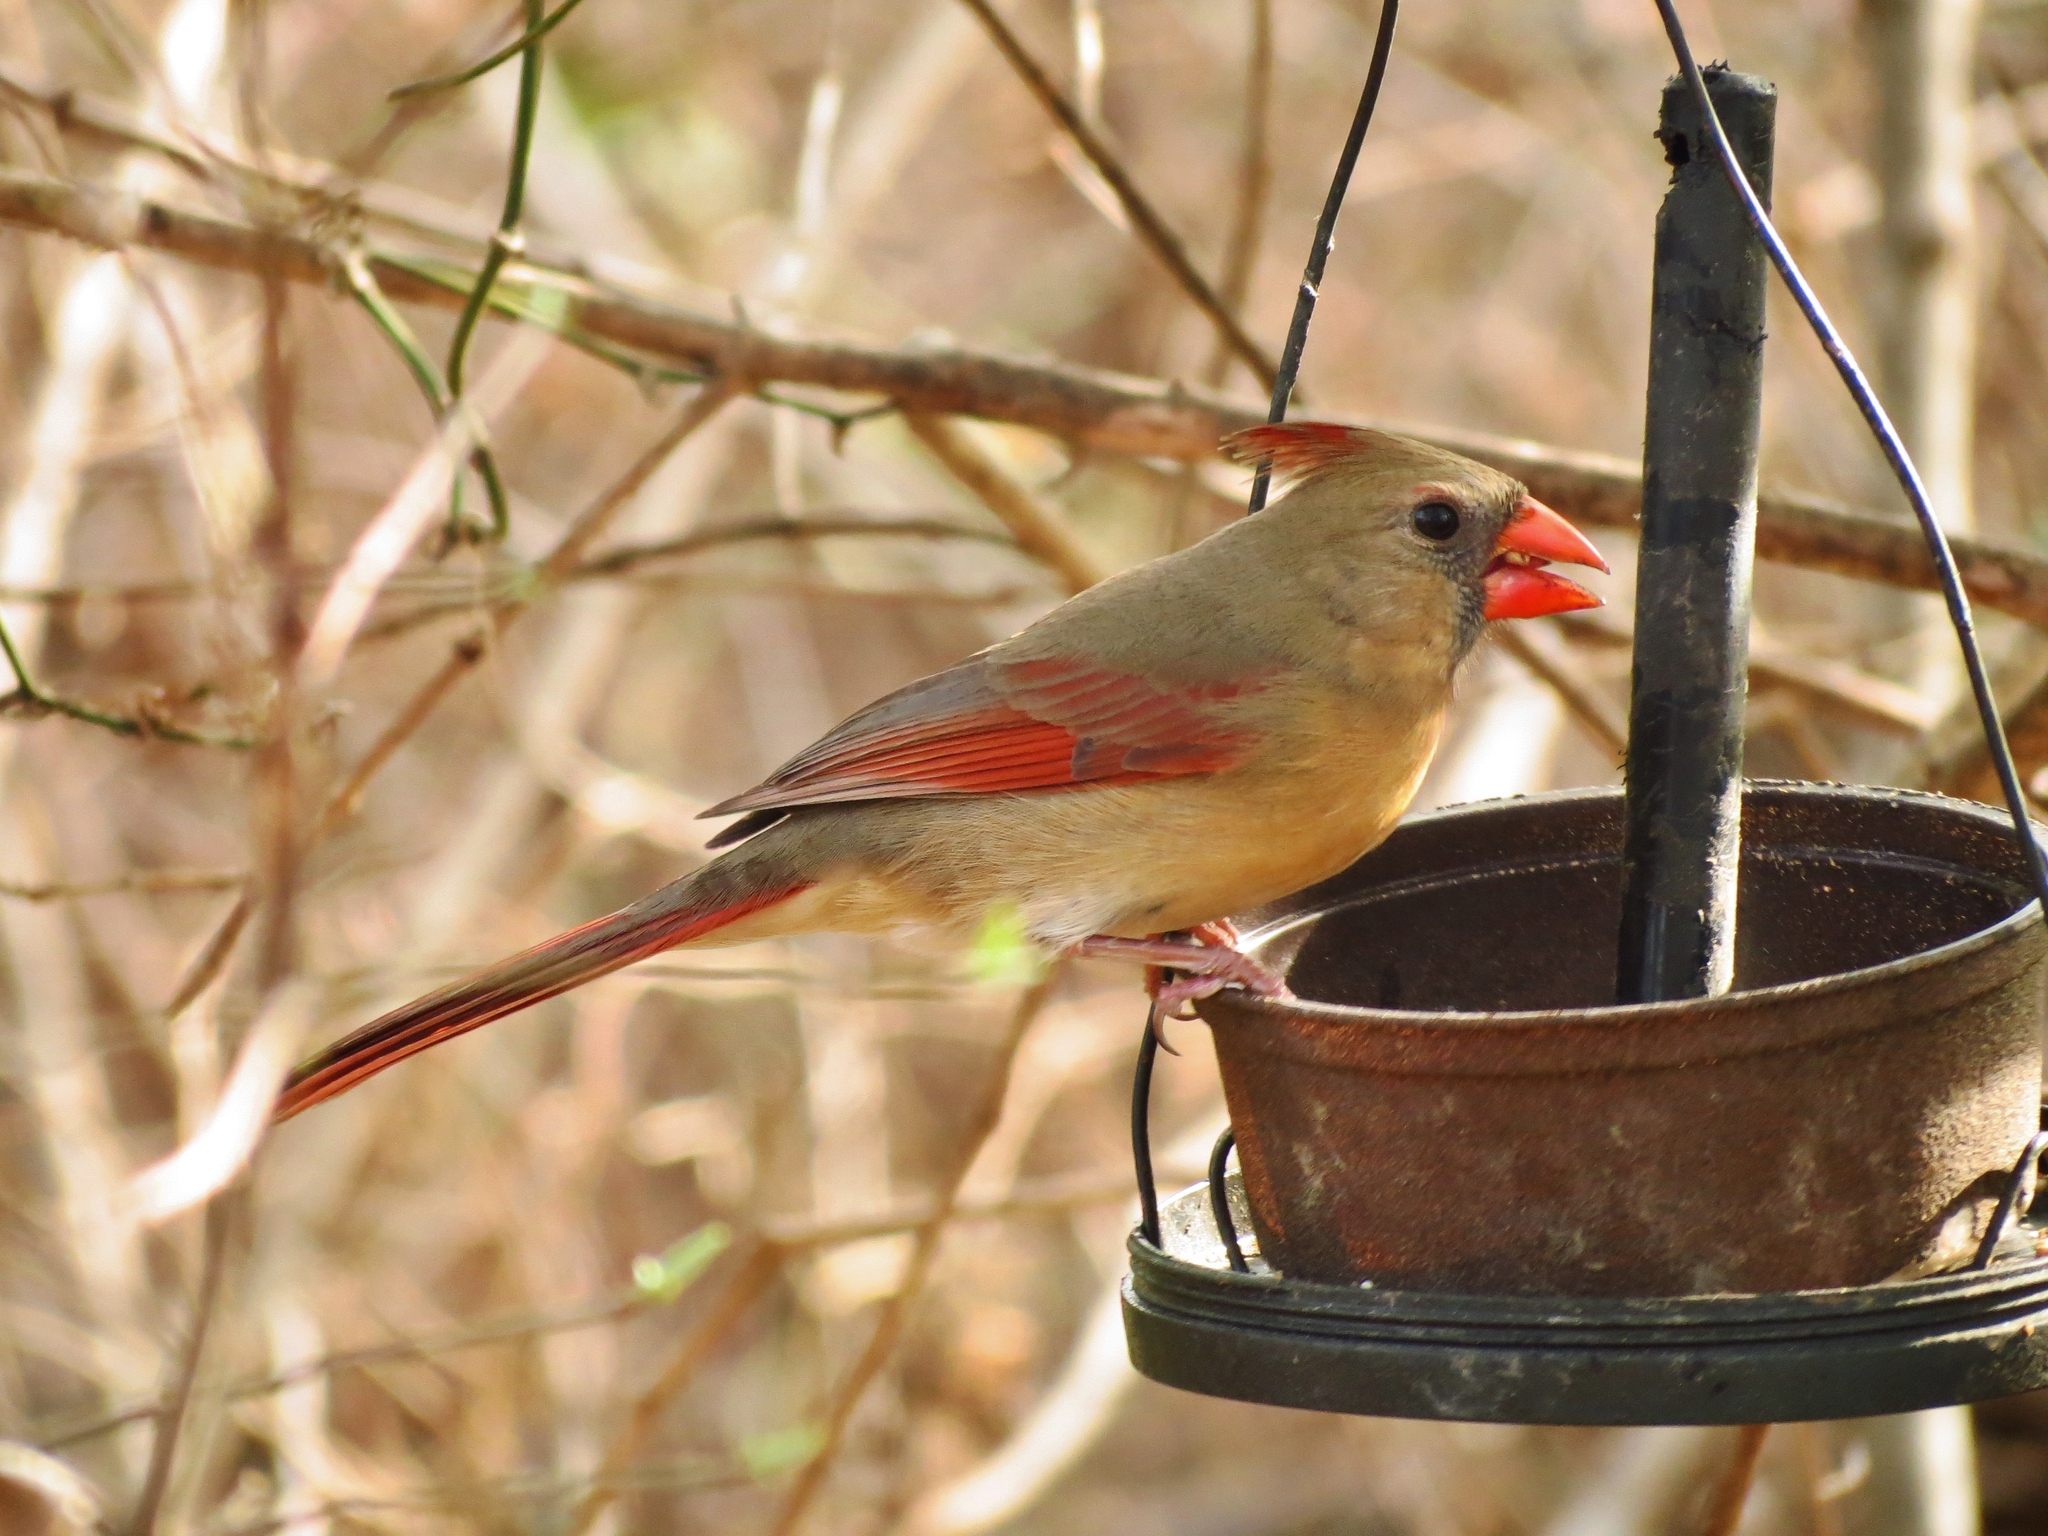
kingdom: Animalia
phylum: Chordata
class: Aves
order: Passeriformes
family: Cardinalidae
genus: Cardinalis
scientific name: Cardinalis cardinalis
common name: Northern cardinal
